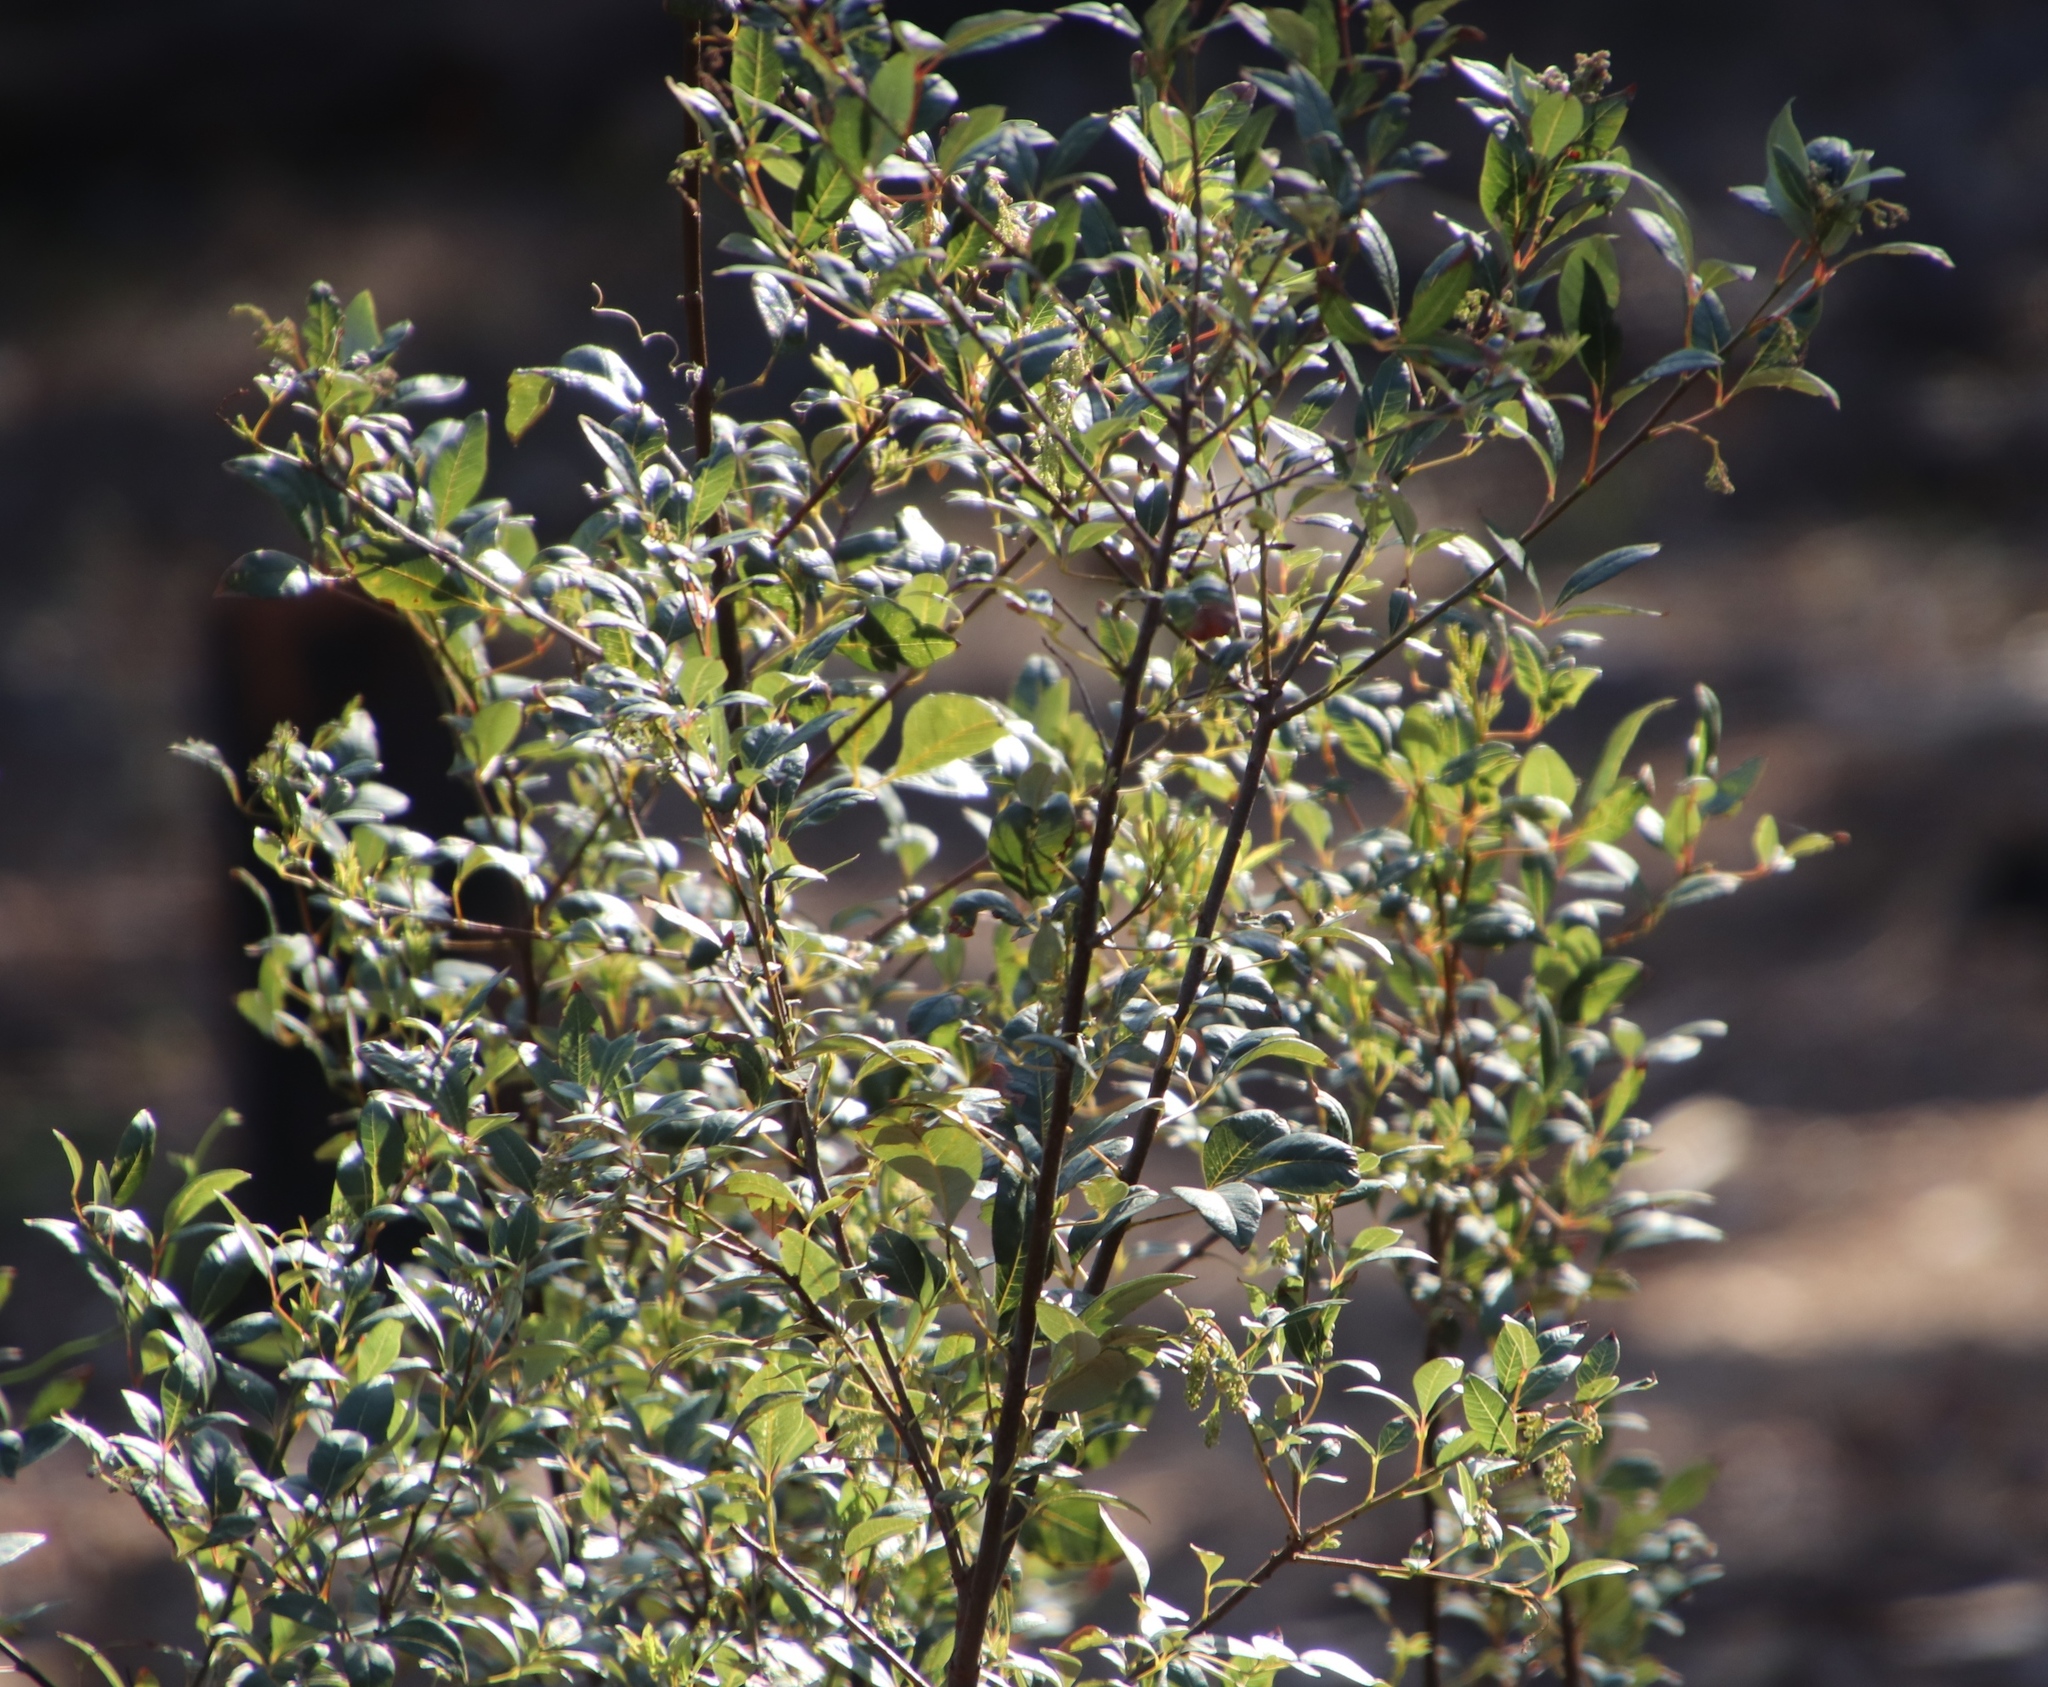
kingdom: Plantae
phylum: Tracheophyta
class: Magnoliopsida
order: Sapindales
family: Anacardiaceae
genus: Searsia
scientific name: Searsia tomentosa
